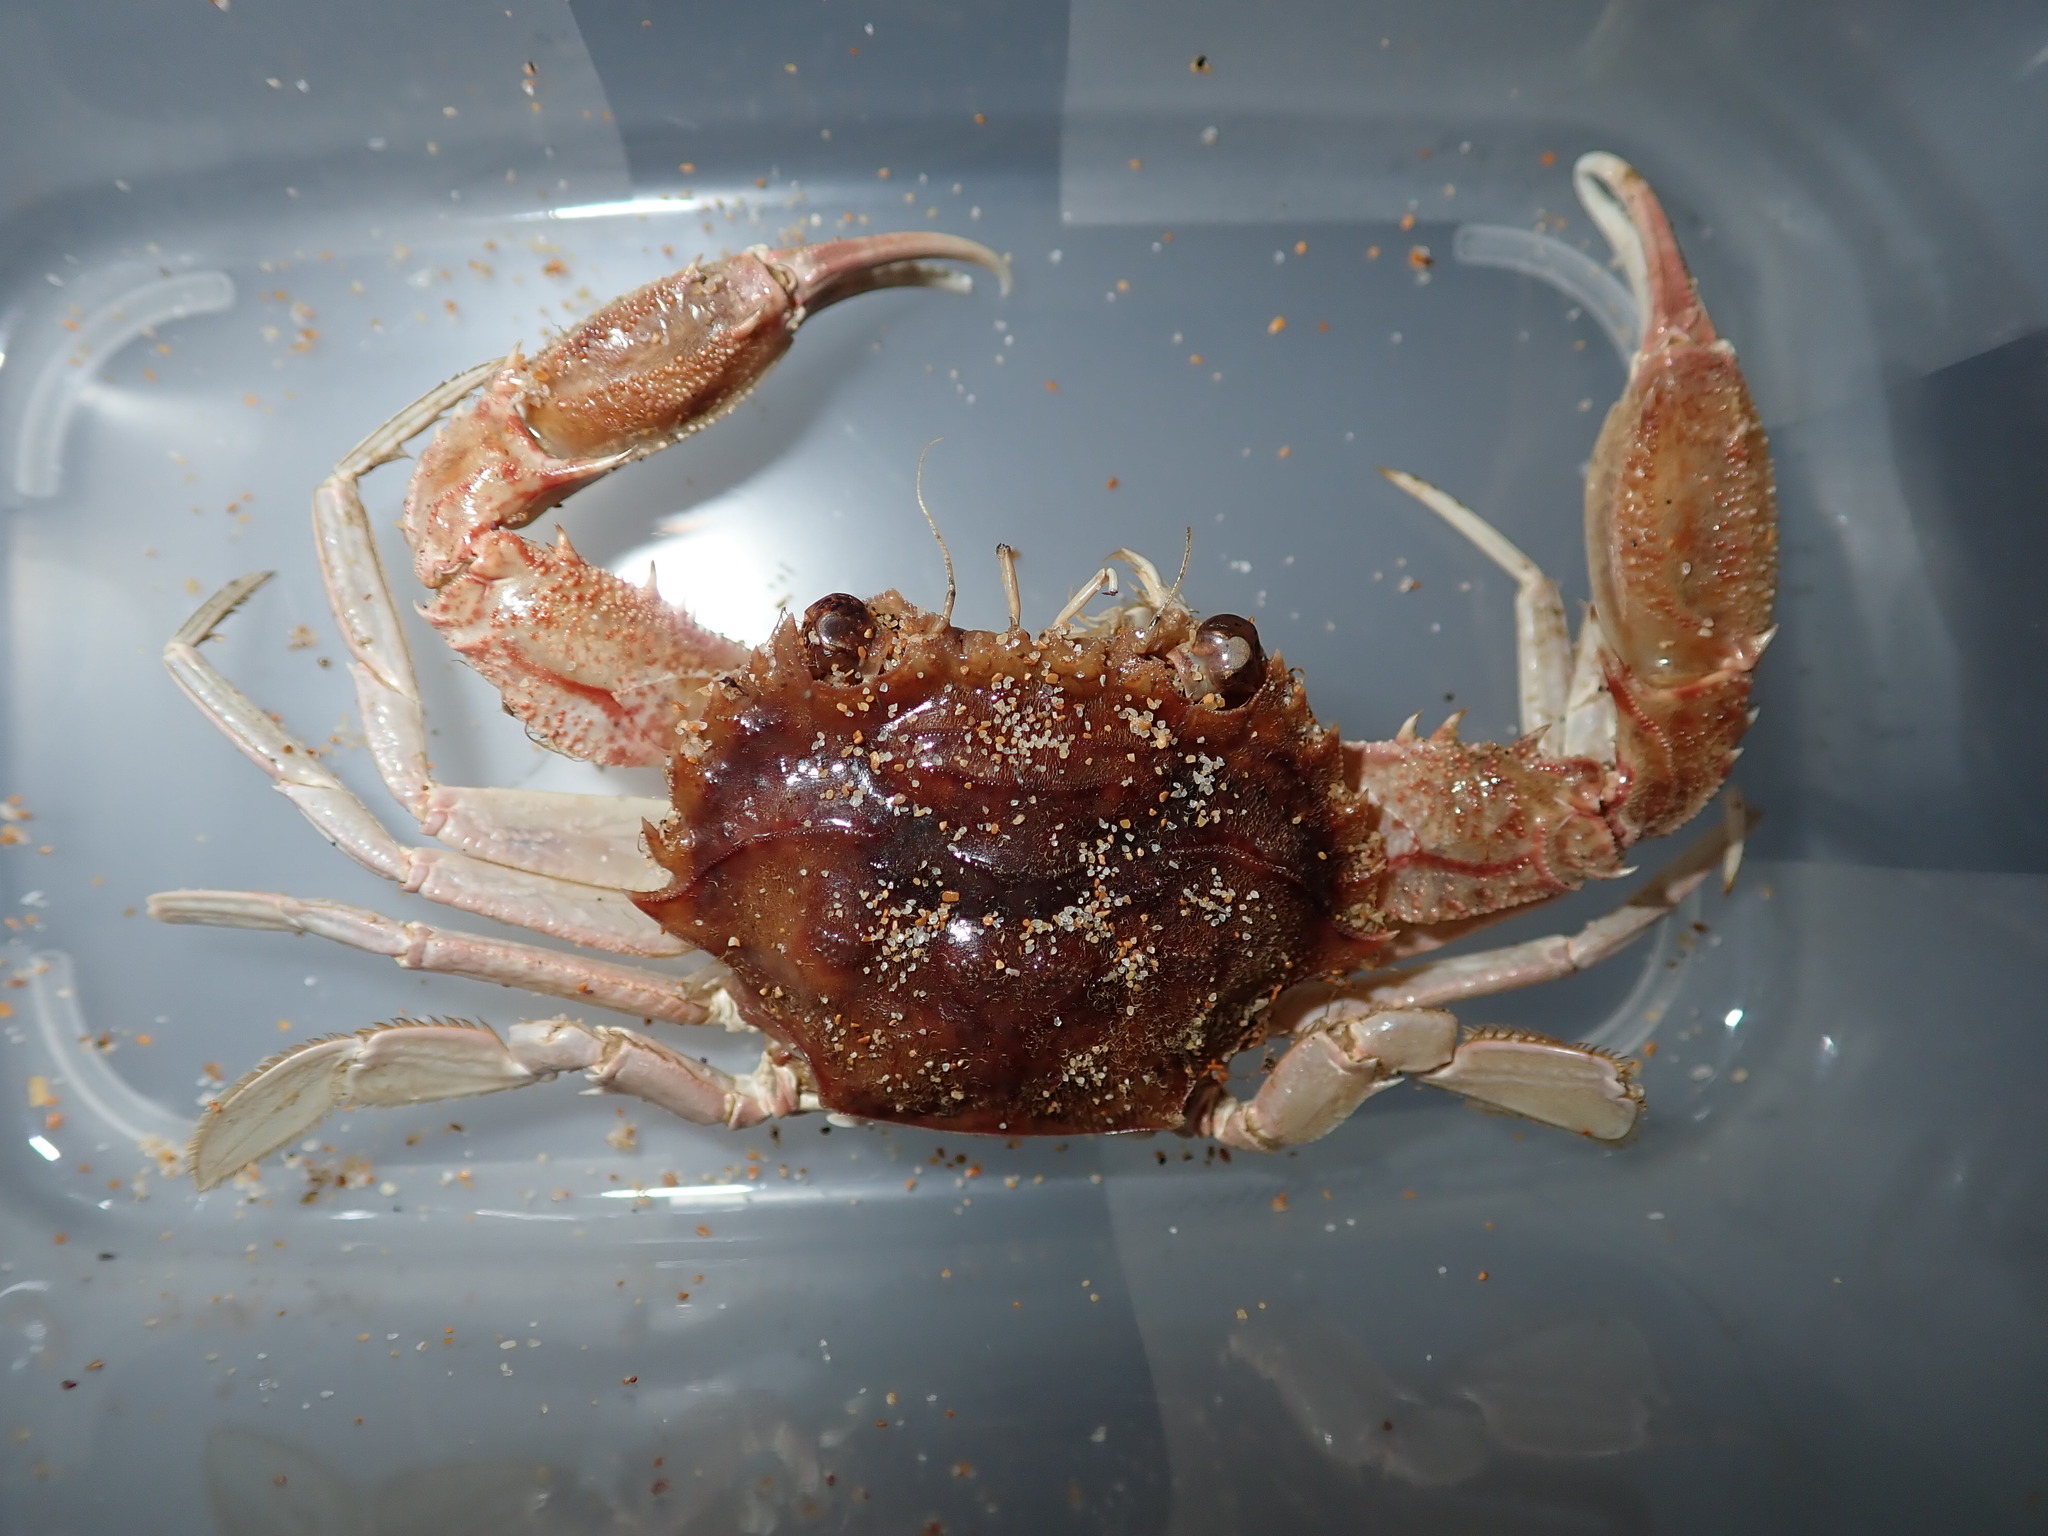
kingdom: Animalia
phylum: Arthropoda
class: Malacostraca
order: Decapoda
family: Portunidae
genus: Charybdis
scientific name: Charybdis bimaculata
